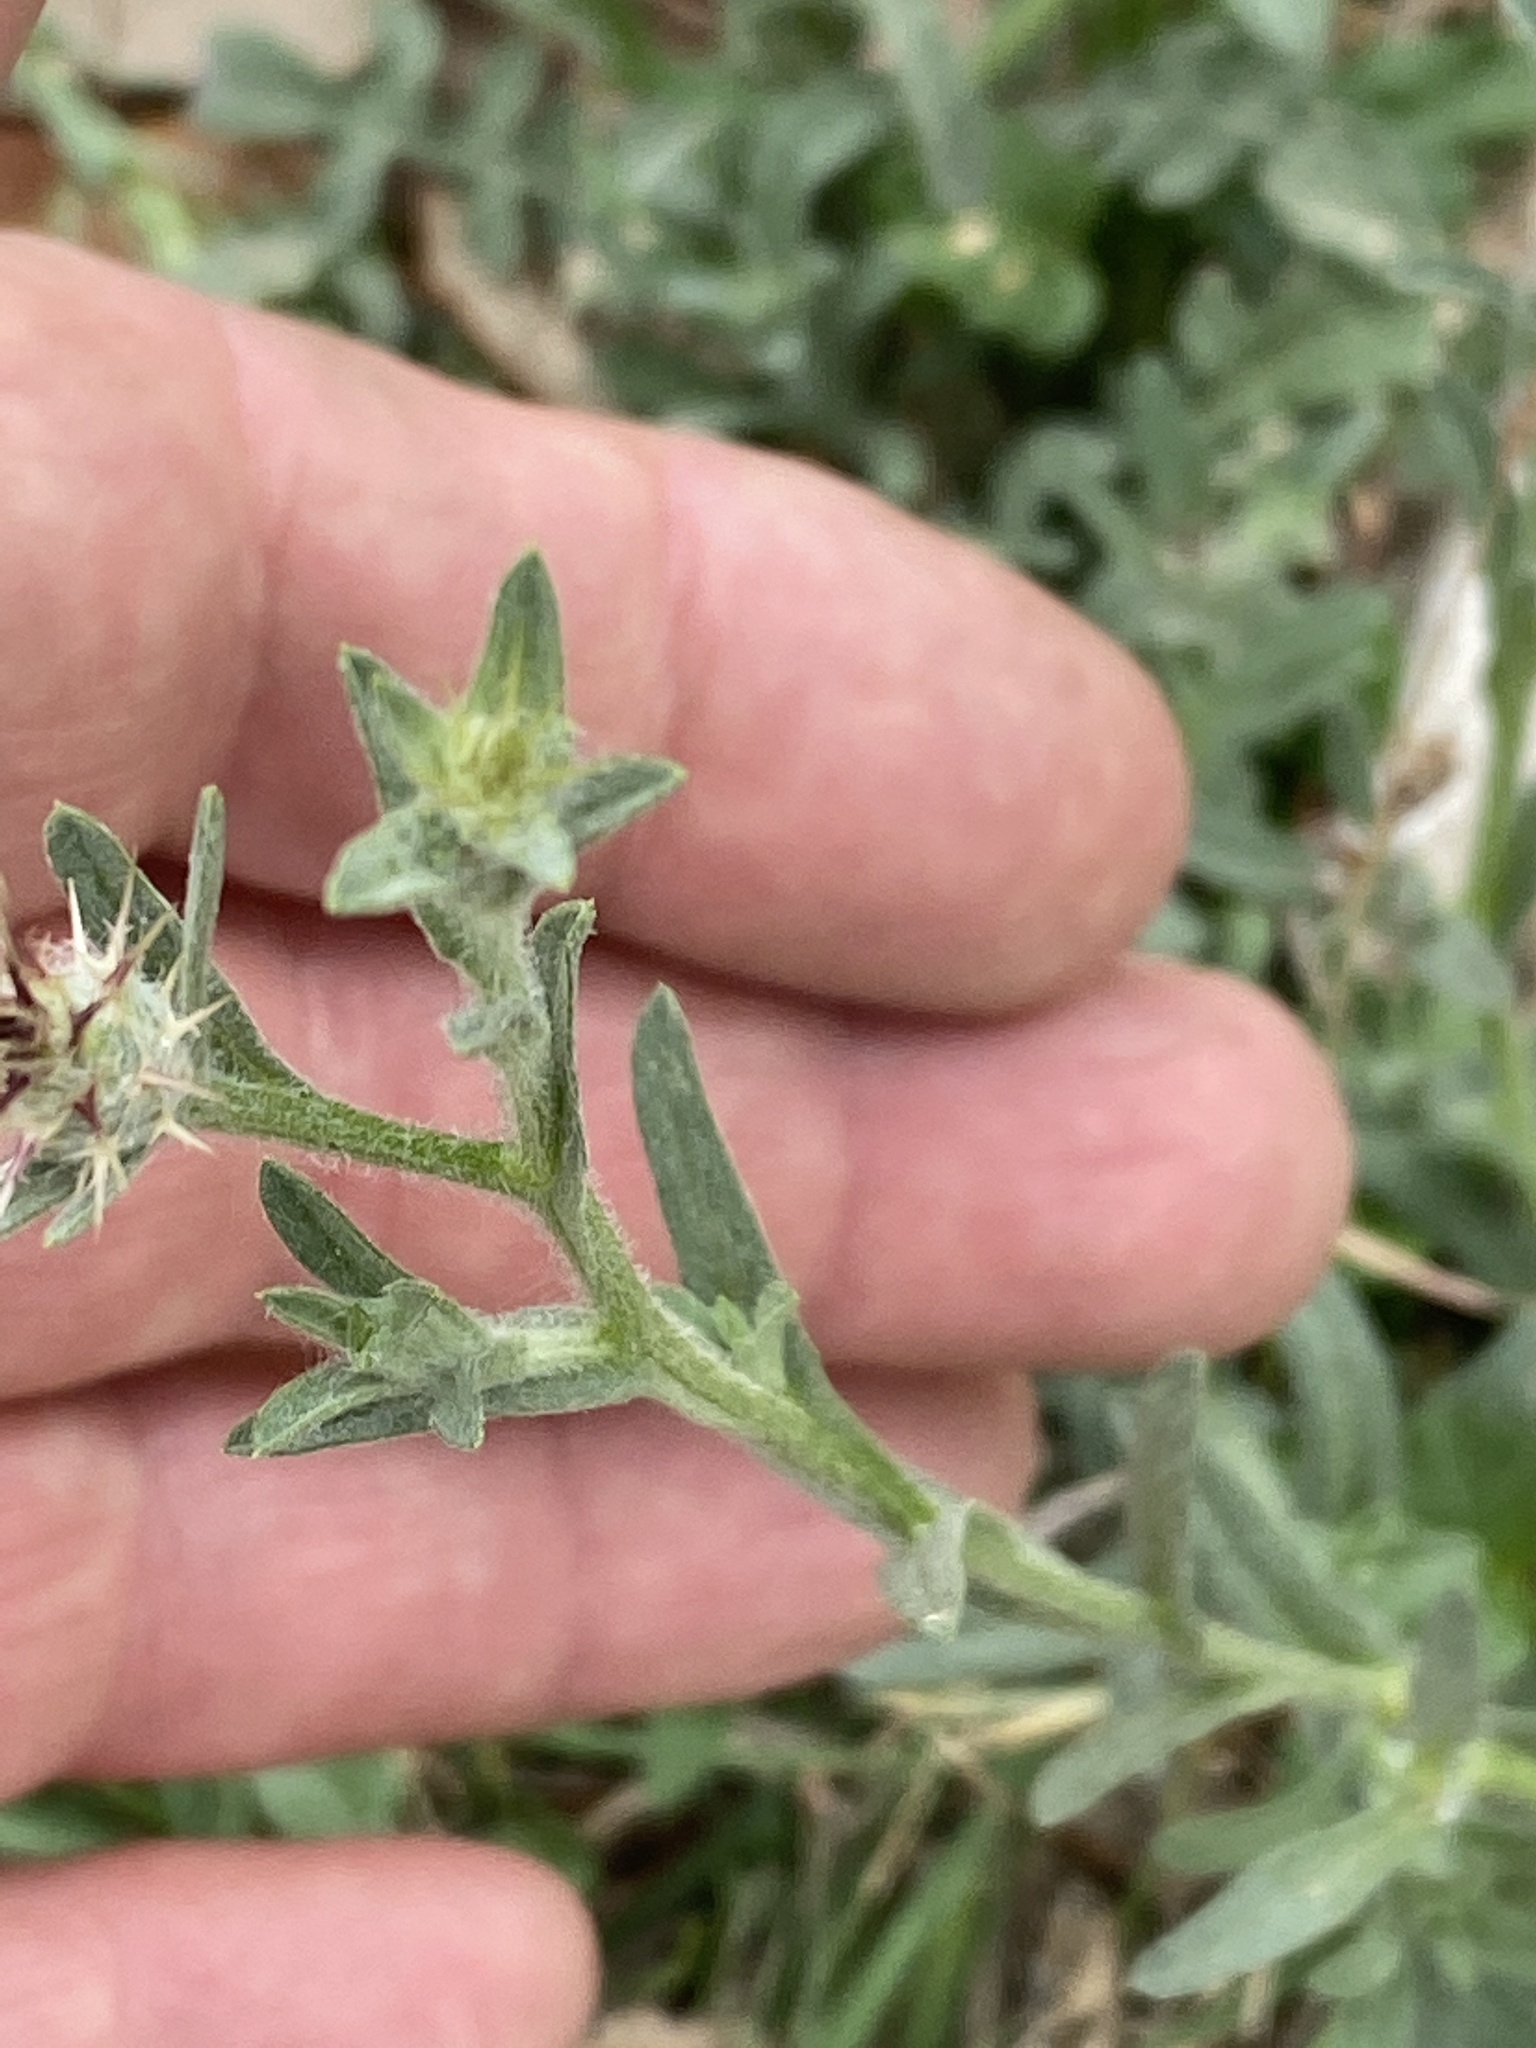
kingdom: Plantae
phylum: Tracheophyta
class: Magnoliopsida
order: Asterales
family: Asteraceae
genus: Centaurea
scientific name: Centaurea melitensis
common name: Maltese star-thistle
